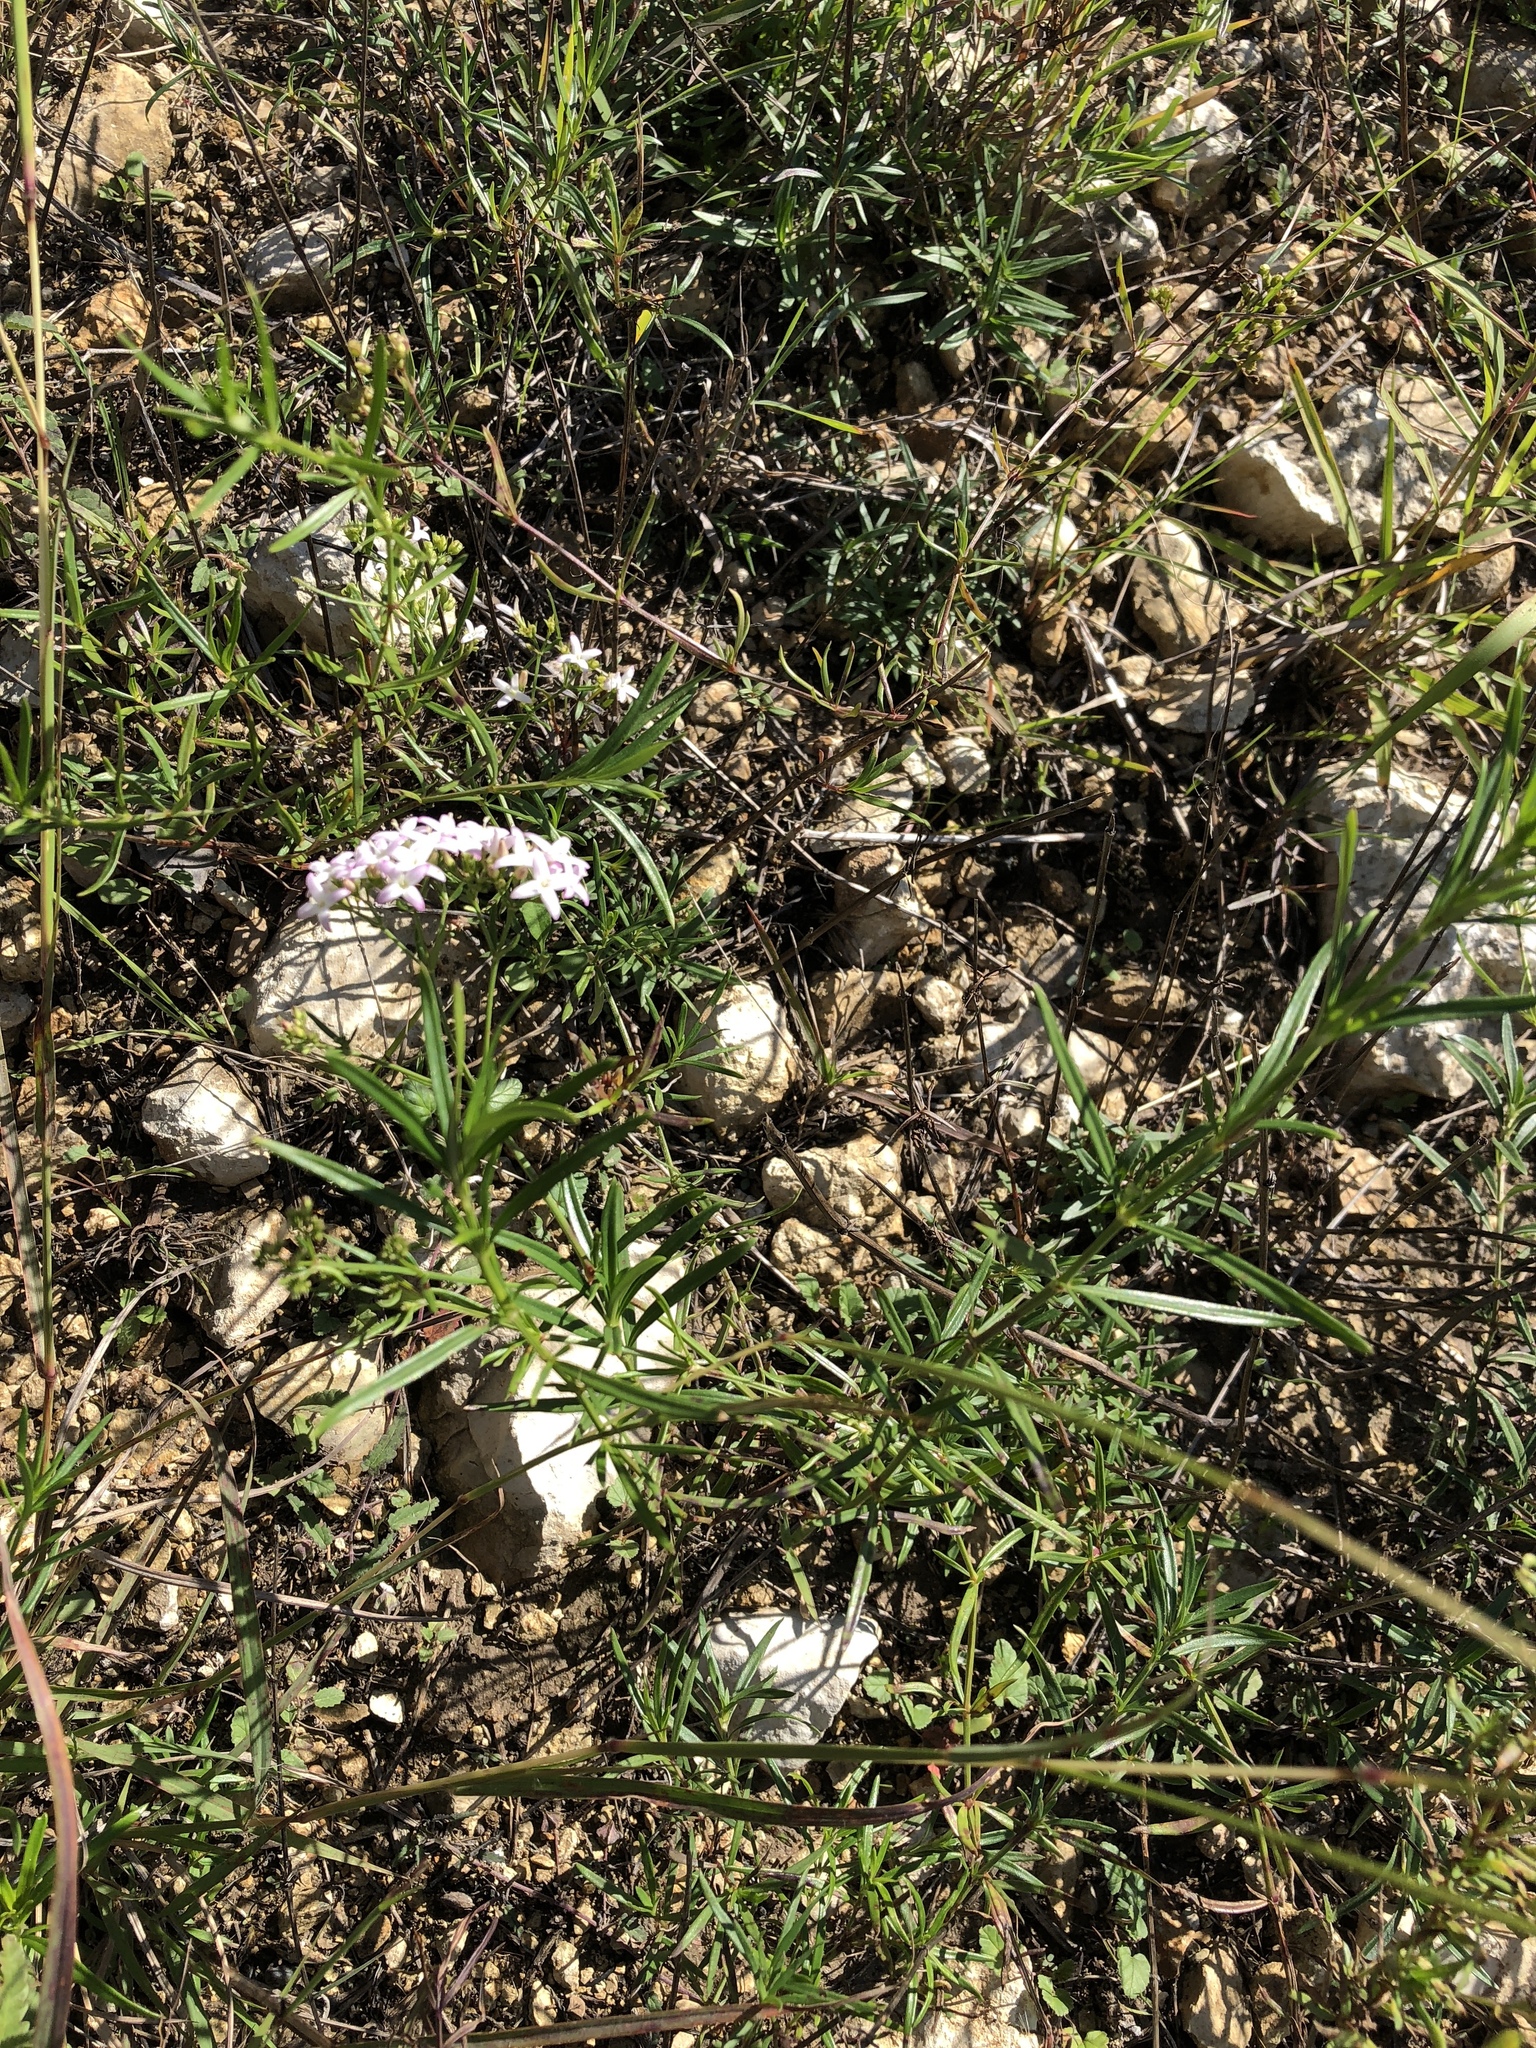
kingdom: Plantae
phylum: Tracheophyta
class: Magnoliopsida
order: Gentianales
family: Rubiaceae
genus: Stenaria
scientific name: Stenaria nigricans
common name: Diamondflowers
